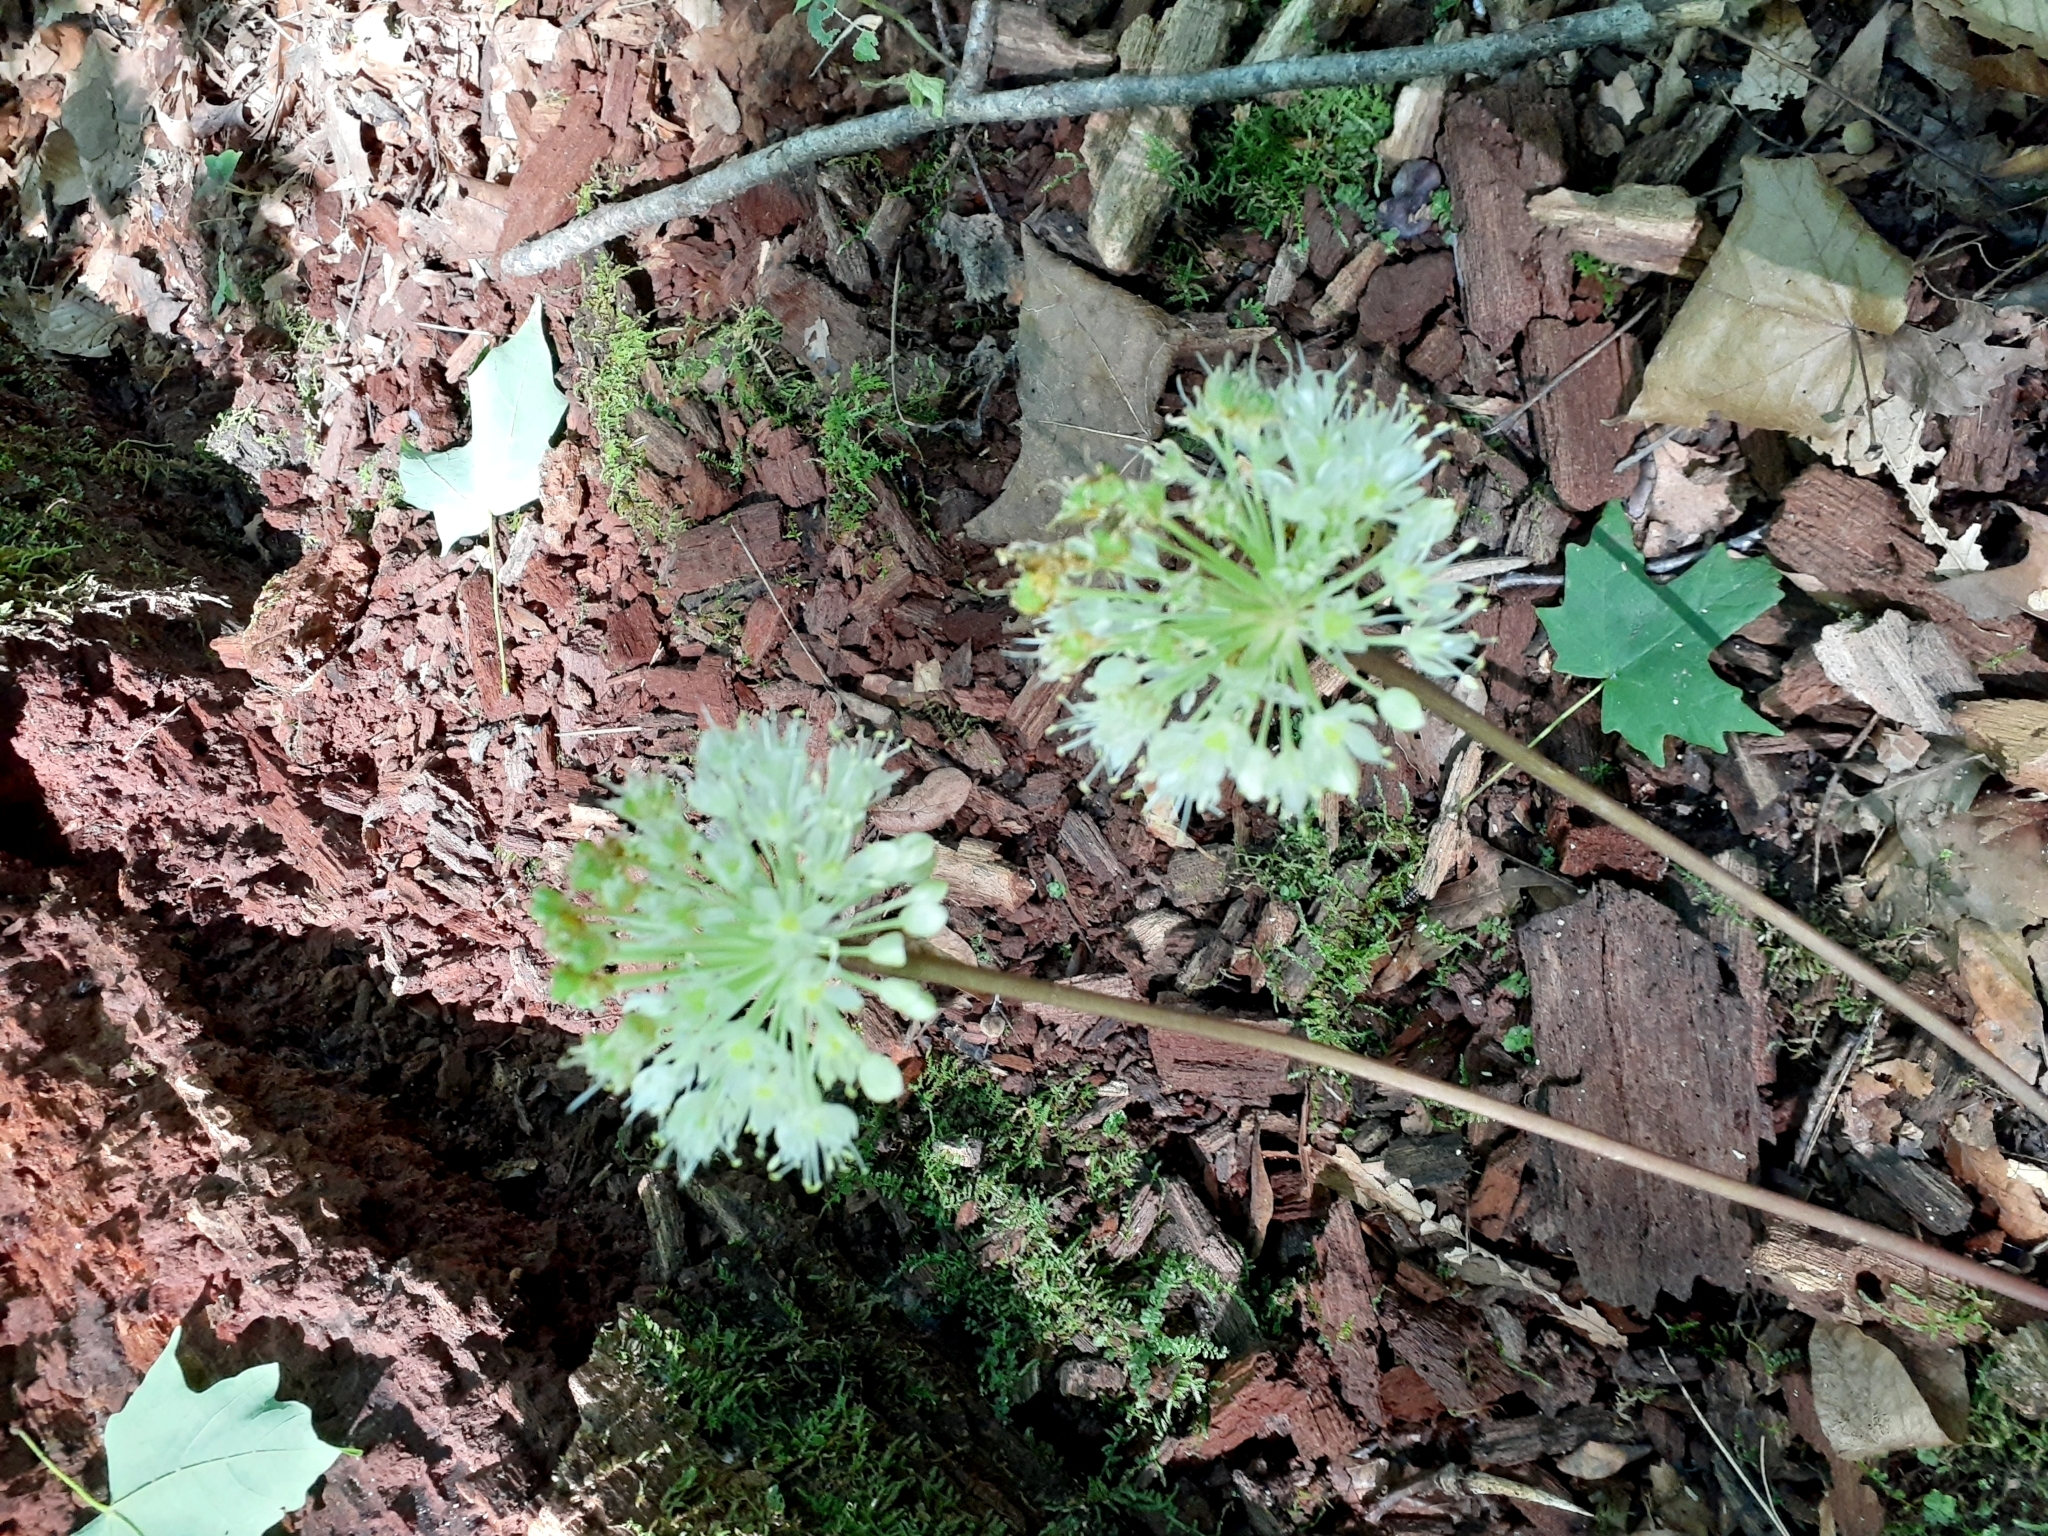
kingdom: Plantae
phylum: Tracheophyta
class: Liliopsida
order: Asparagales
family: Amaryllidaceae
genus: Allium
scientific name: Allium tricoccum
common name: Ramp
